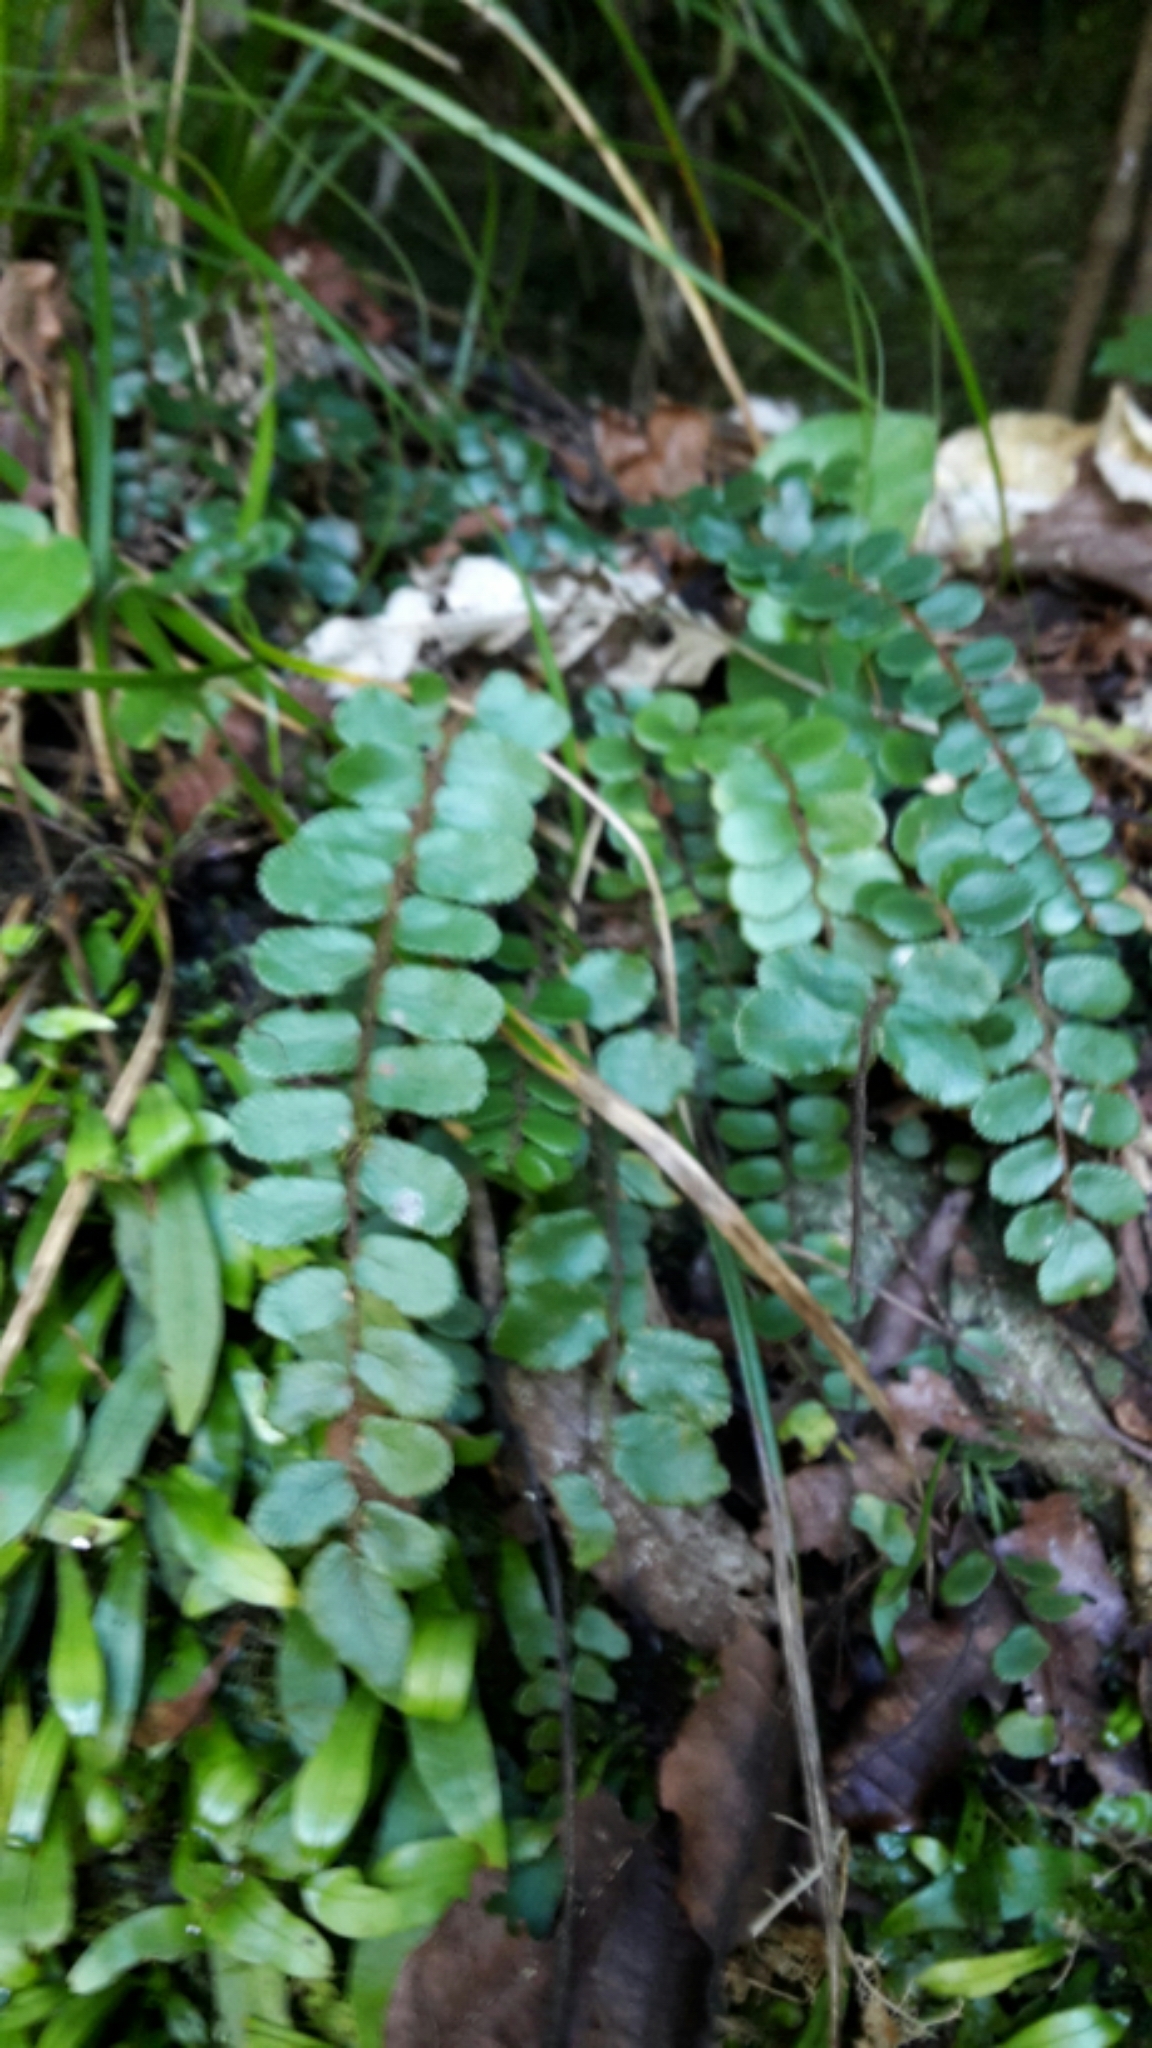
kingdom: Plantae
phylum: Tracheophyta
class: Polypodiopsida
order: Polypodiales
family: Pteridaceae
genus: Pellaea
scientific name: Pellaea rotundifolia
